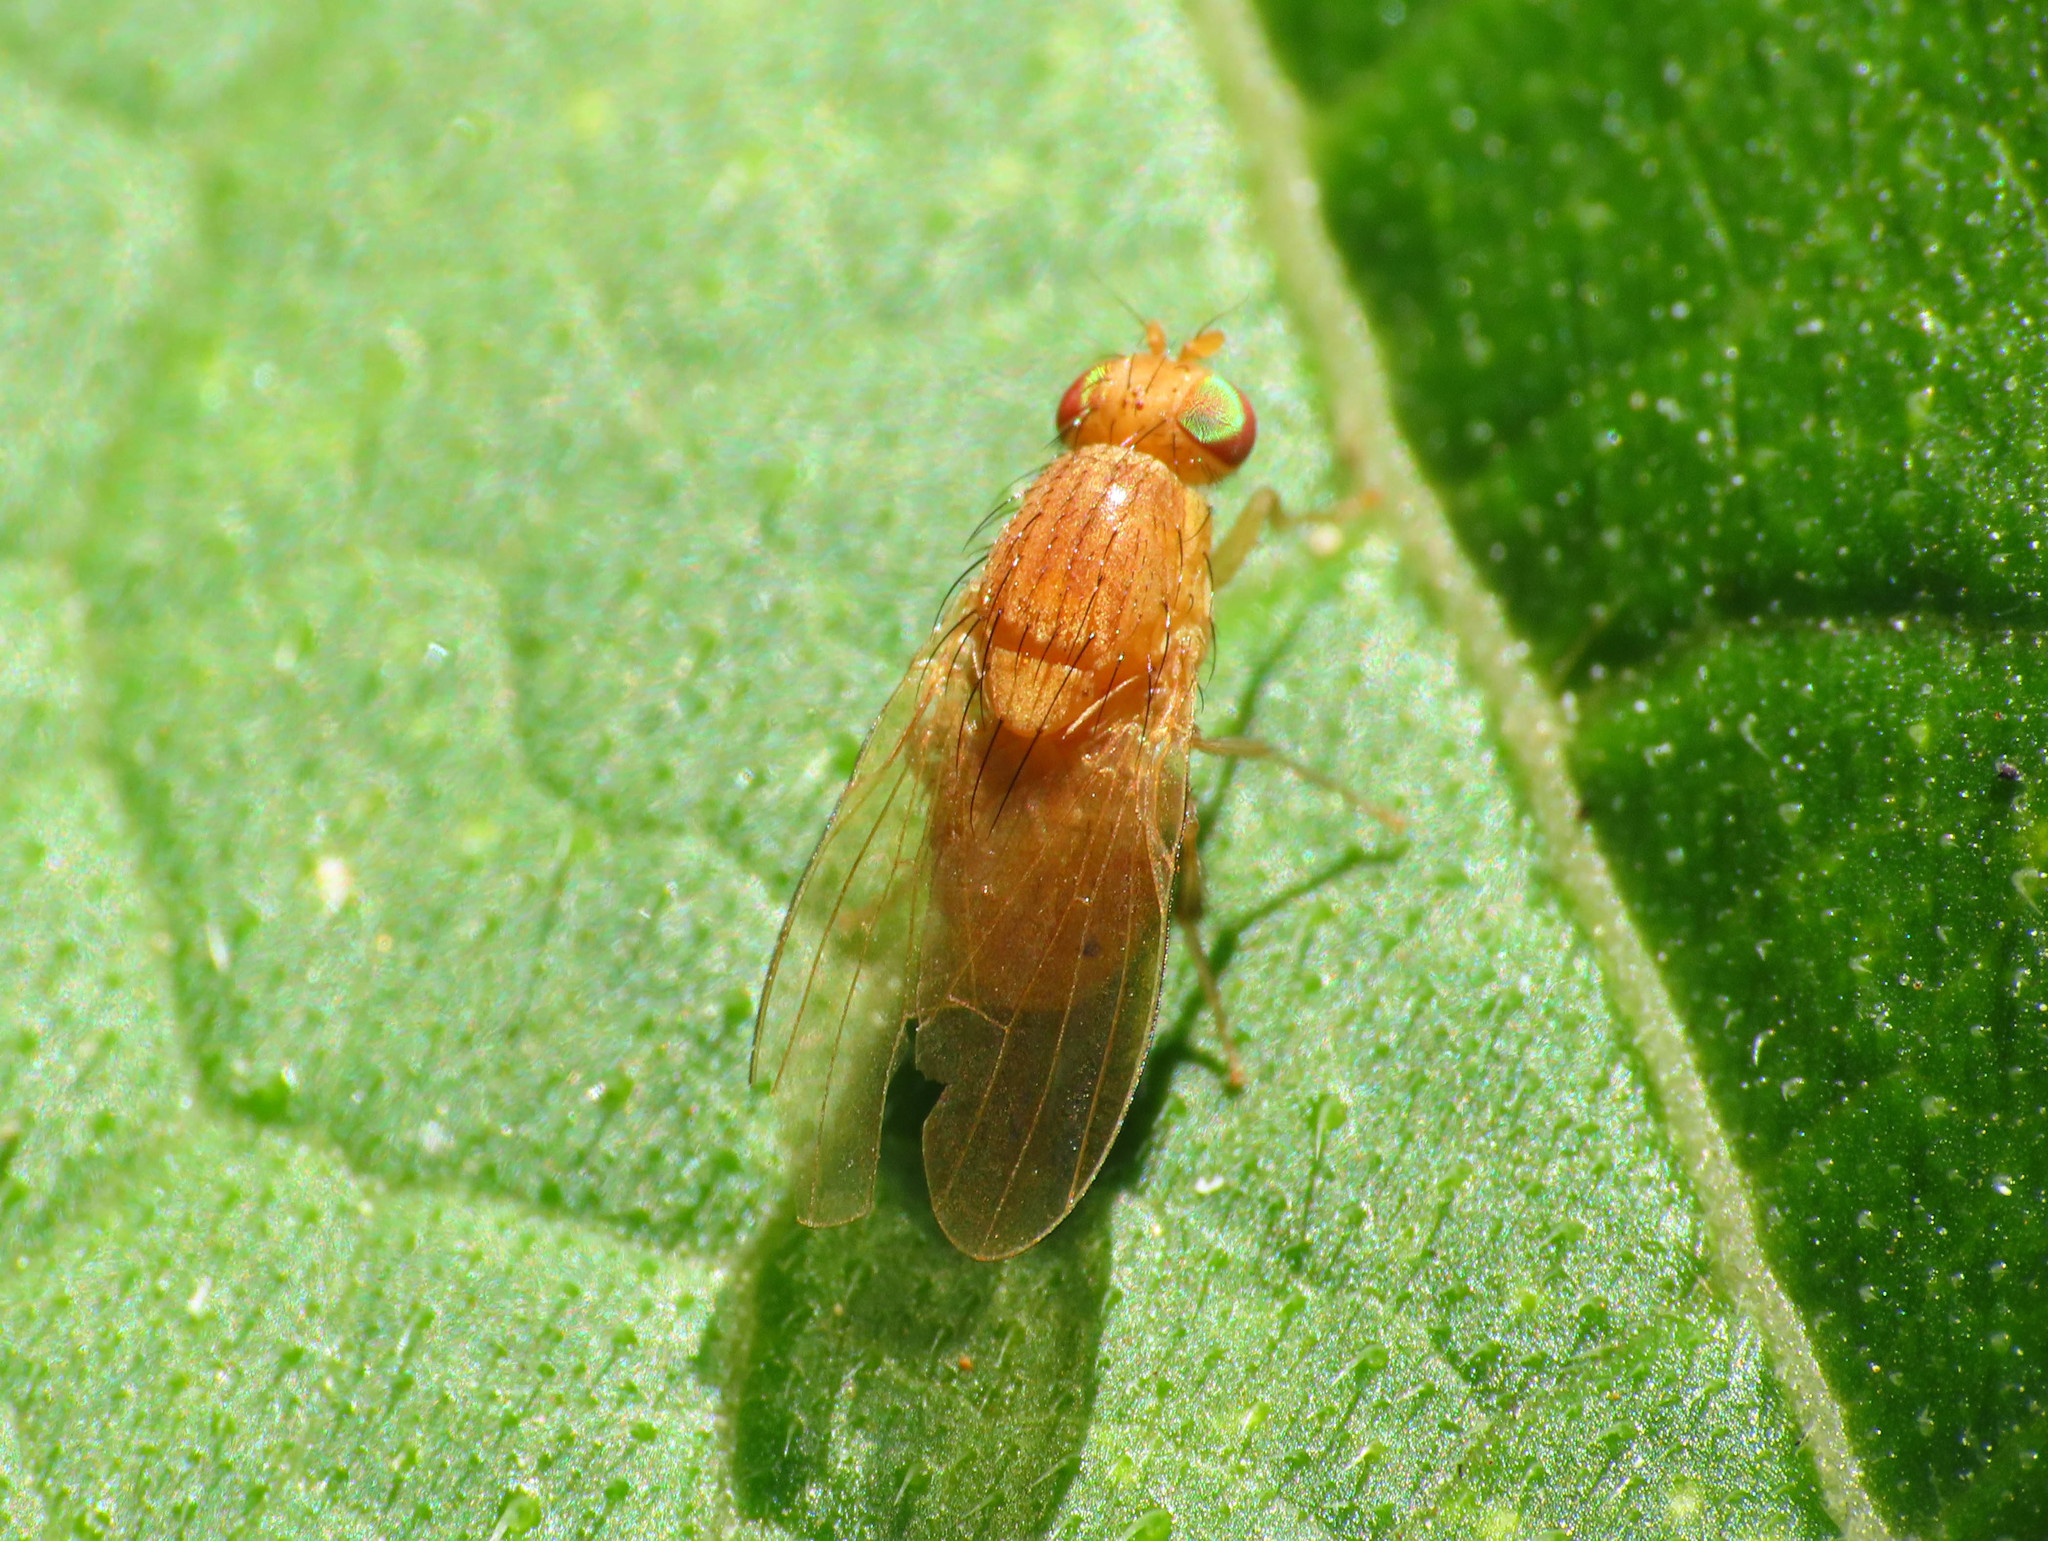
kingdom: Animalia
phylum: Arthropoda
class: Insecta
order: Diptera
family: Lauxaniidae
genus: Sapromyza
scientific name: Sapromyza quadripunctata
